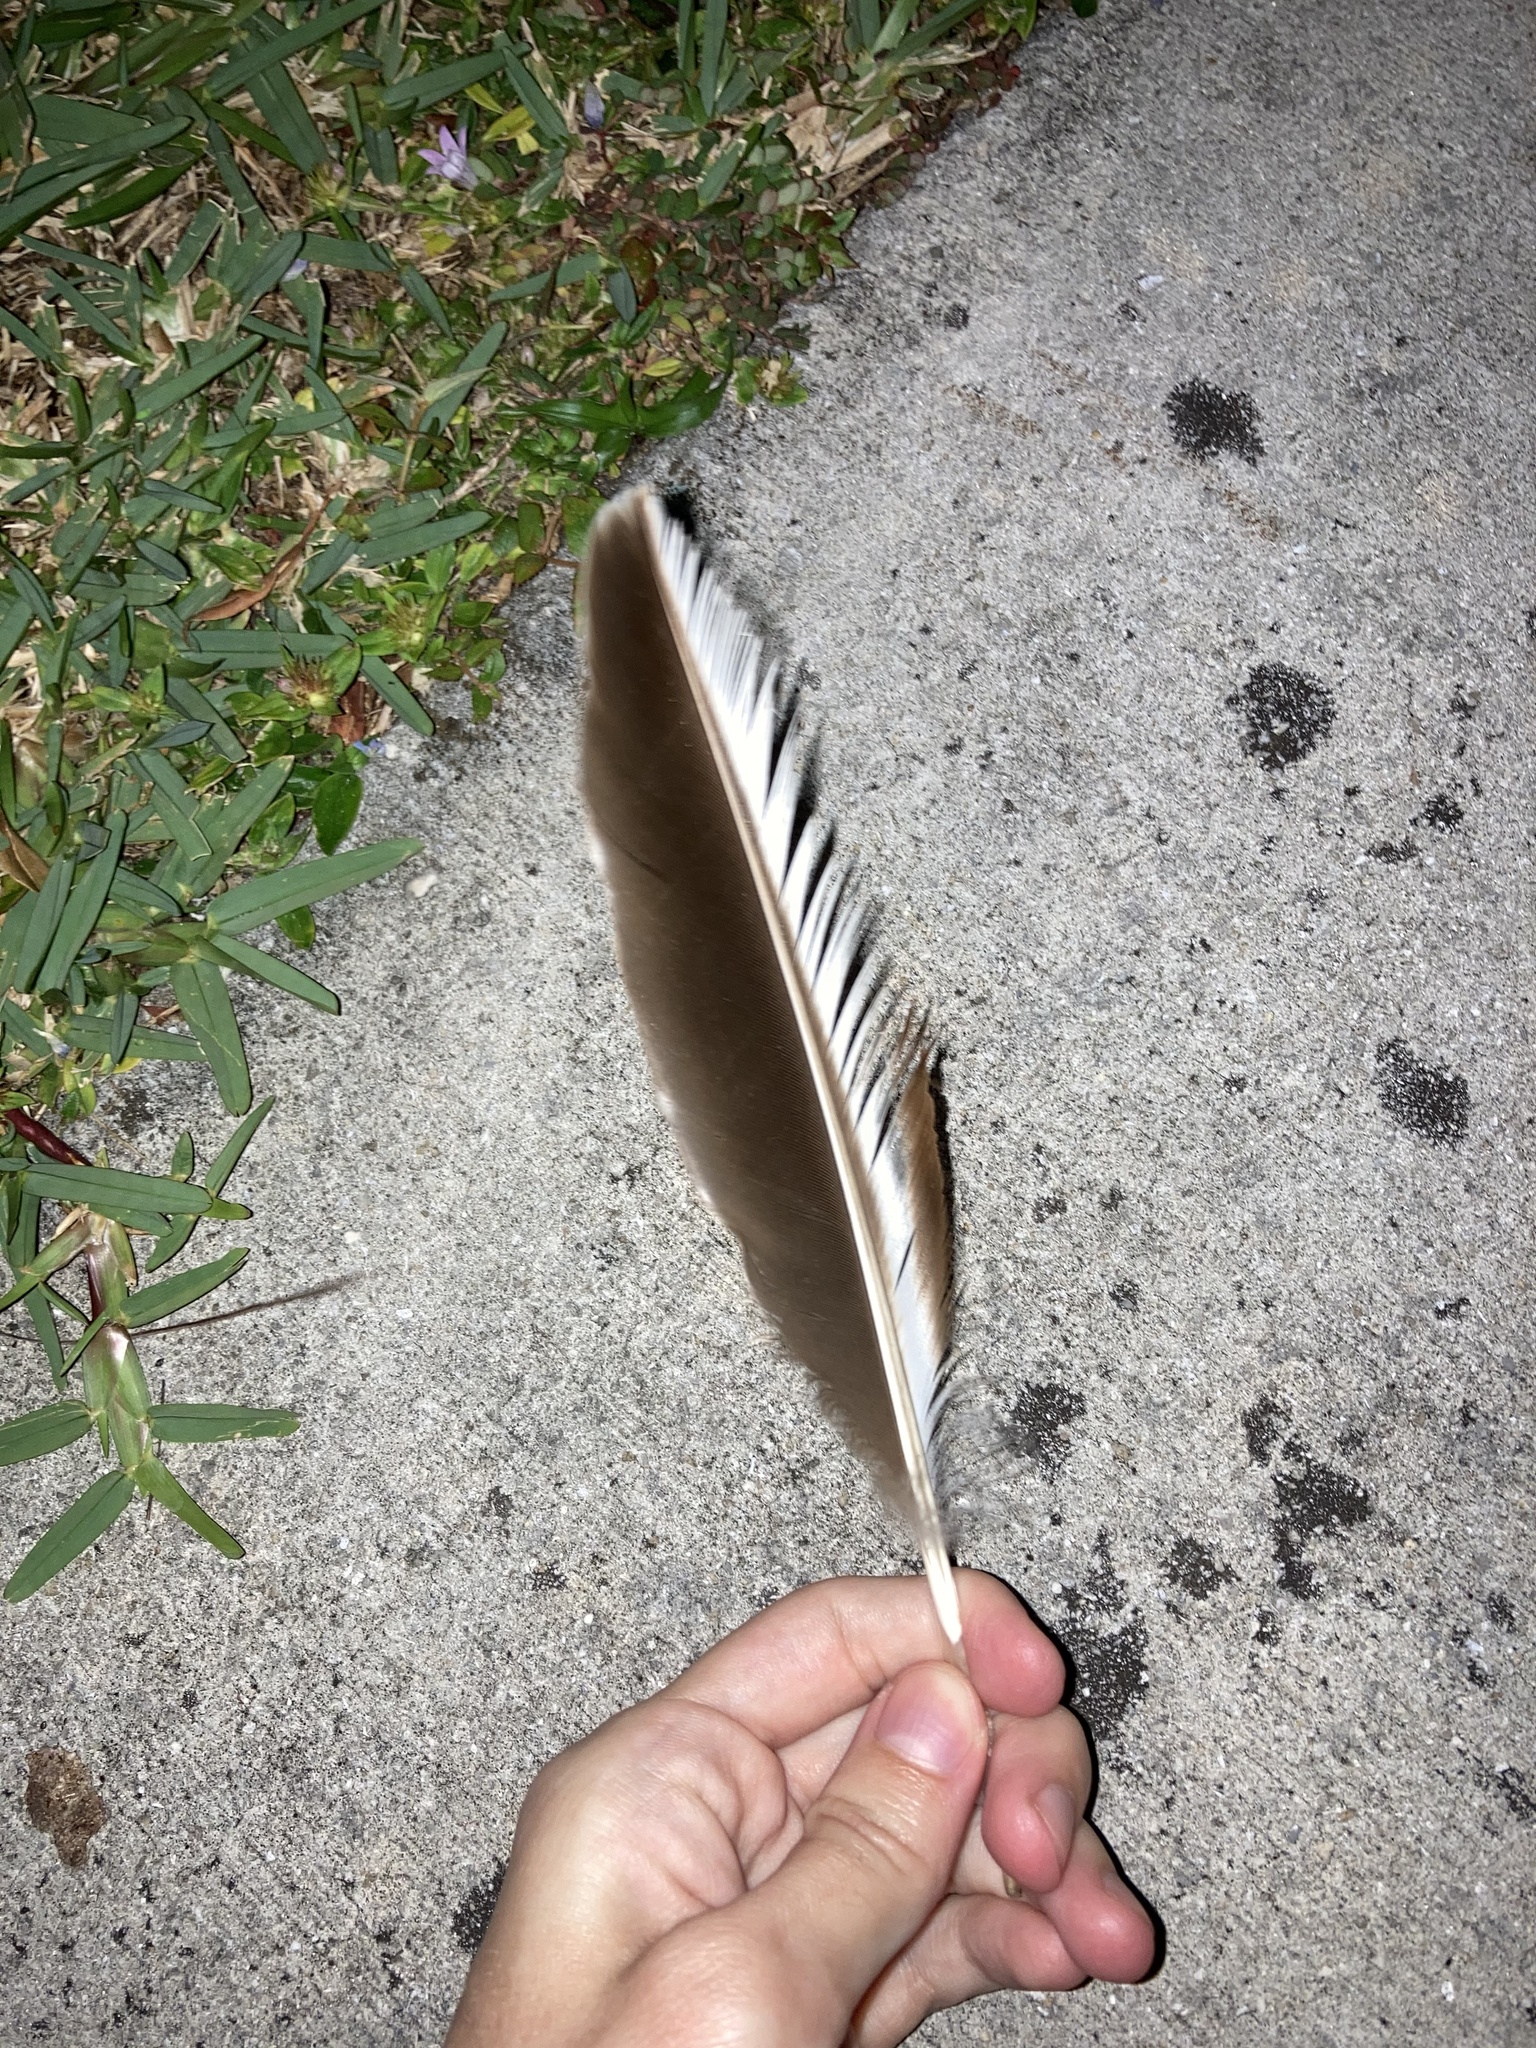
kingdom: Animalia
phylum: Chordata
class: Aves
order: Anseriformes
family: Anatidae
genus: Cairina
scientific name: Cairina moschata
